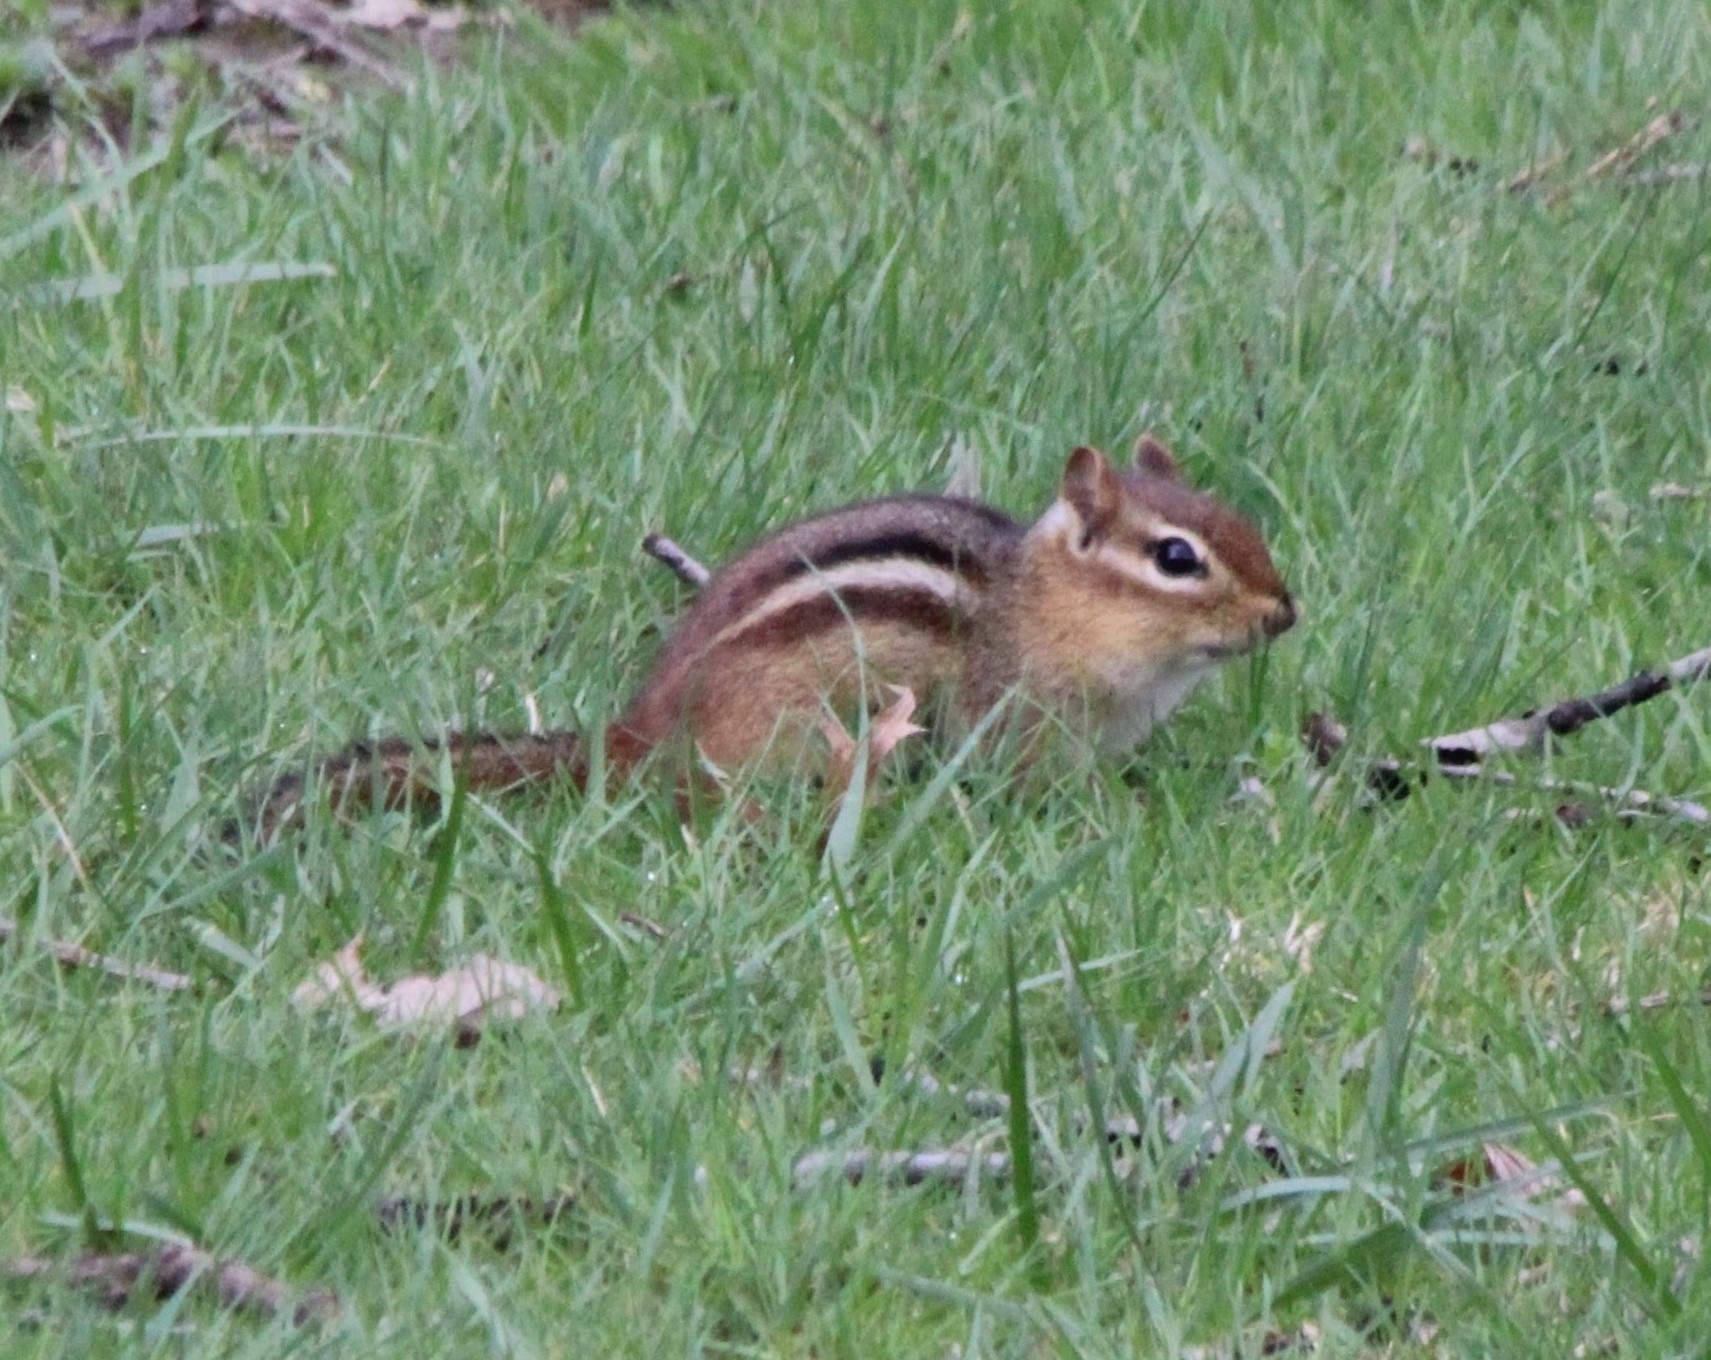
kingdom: Animalia
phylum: Chordata
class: Mammalia
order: Rodentia
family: Sciuridae
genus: Tamias
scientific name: Tamias striatus
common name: Eastern chipmunk
